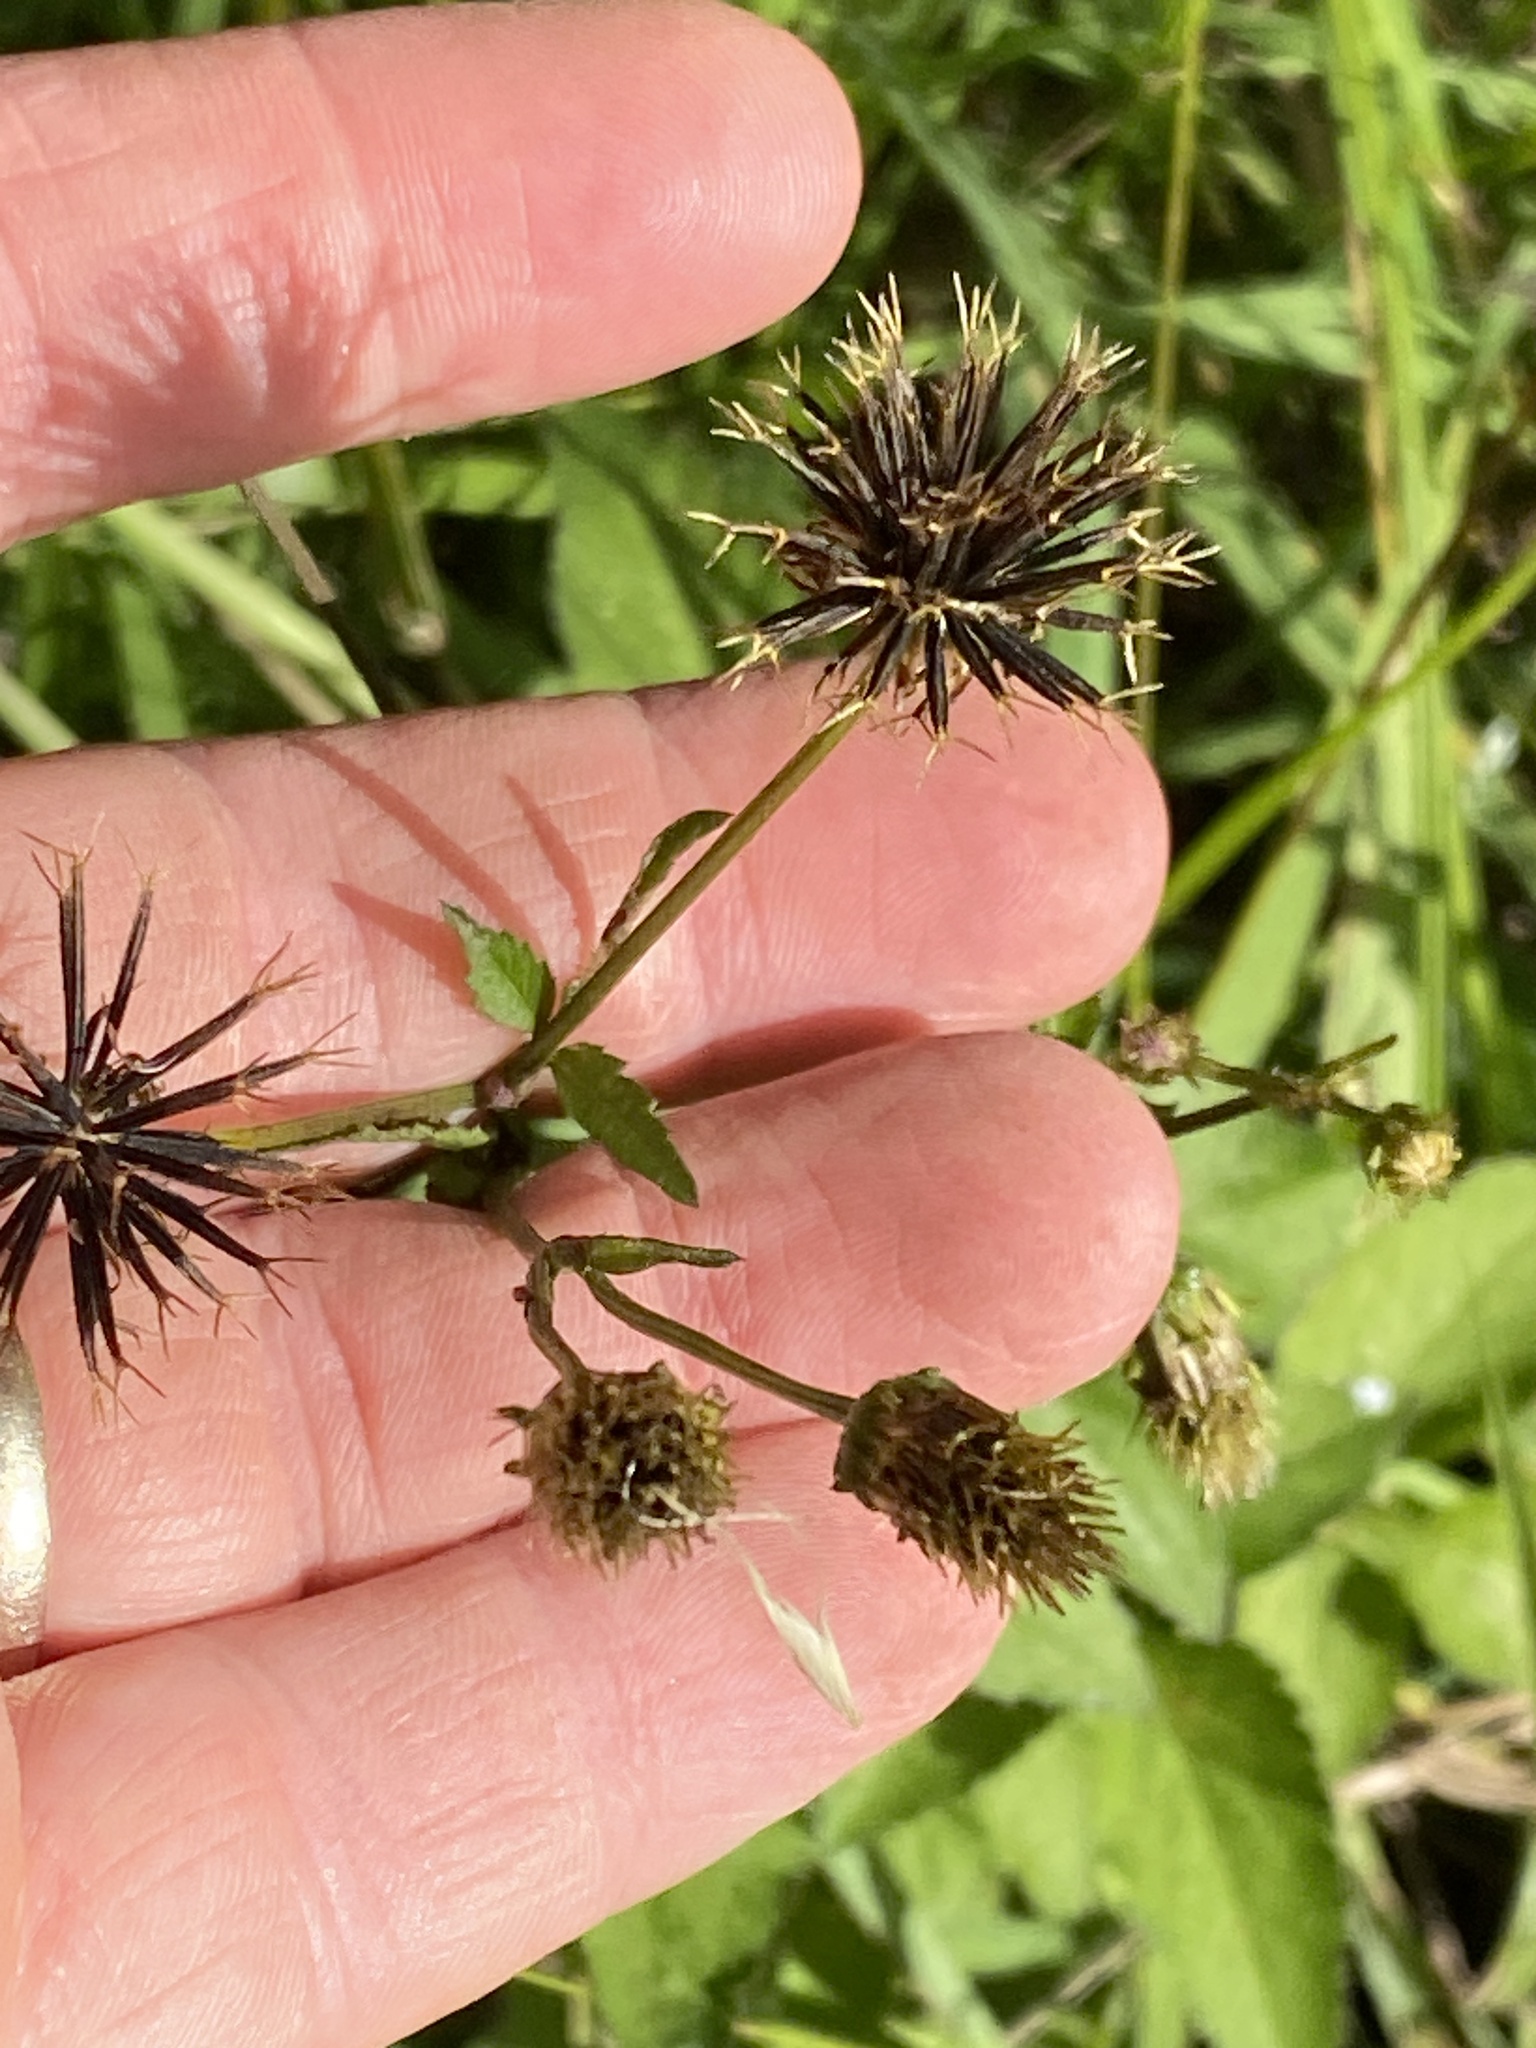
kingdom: Plantae
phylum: Tracheophyta
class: Magnoliopsida
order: Asterales
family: Asteraceae
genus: Bidens
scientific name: Bidens pilosa
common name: Black-jack
